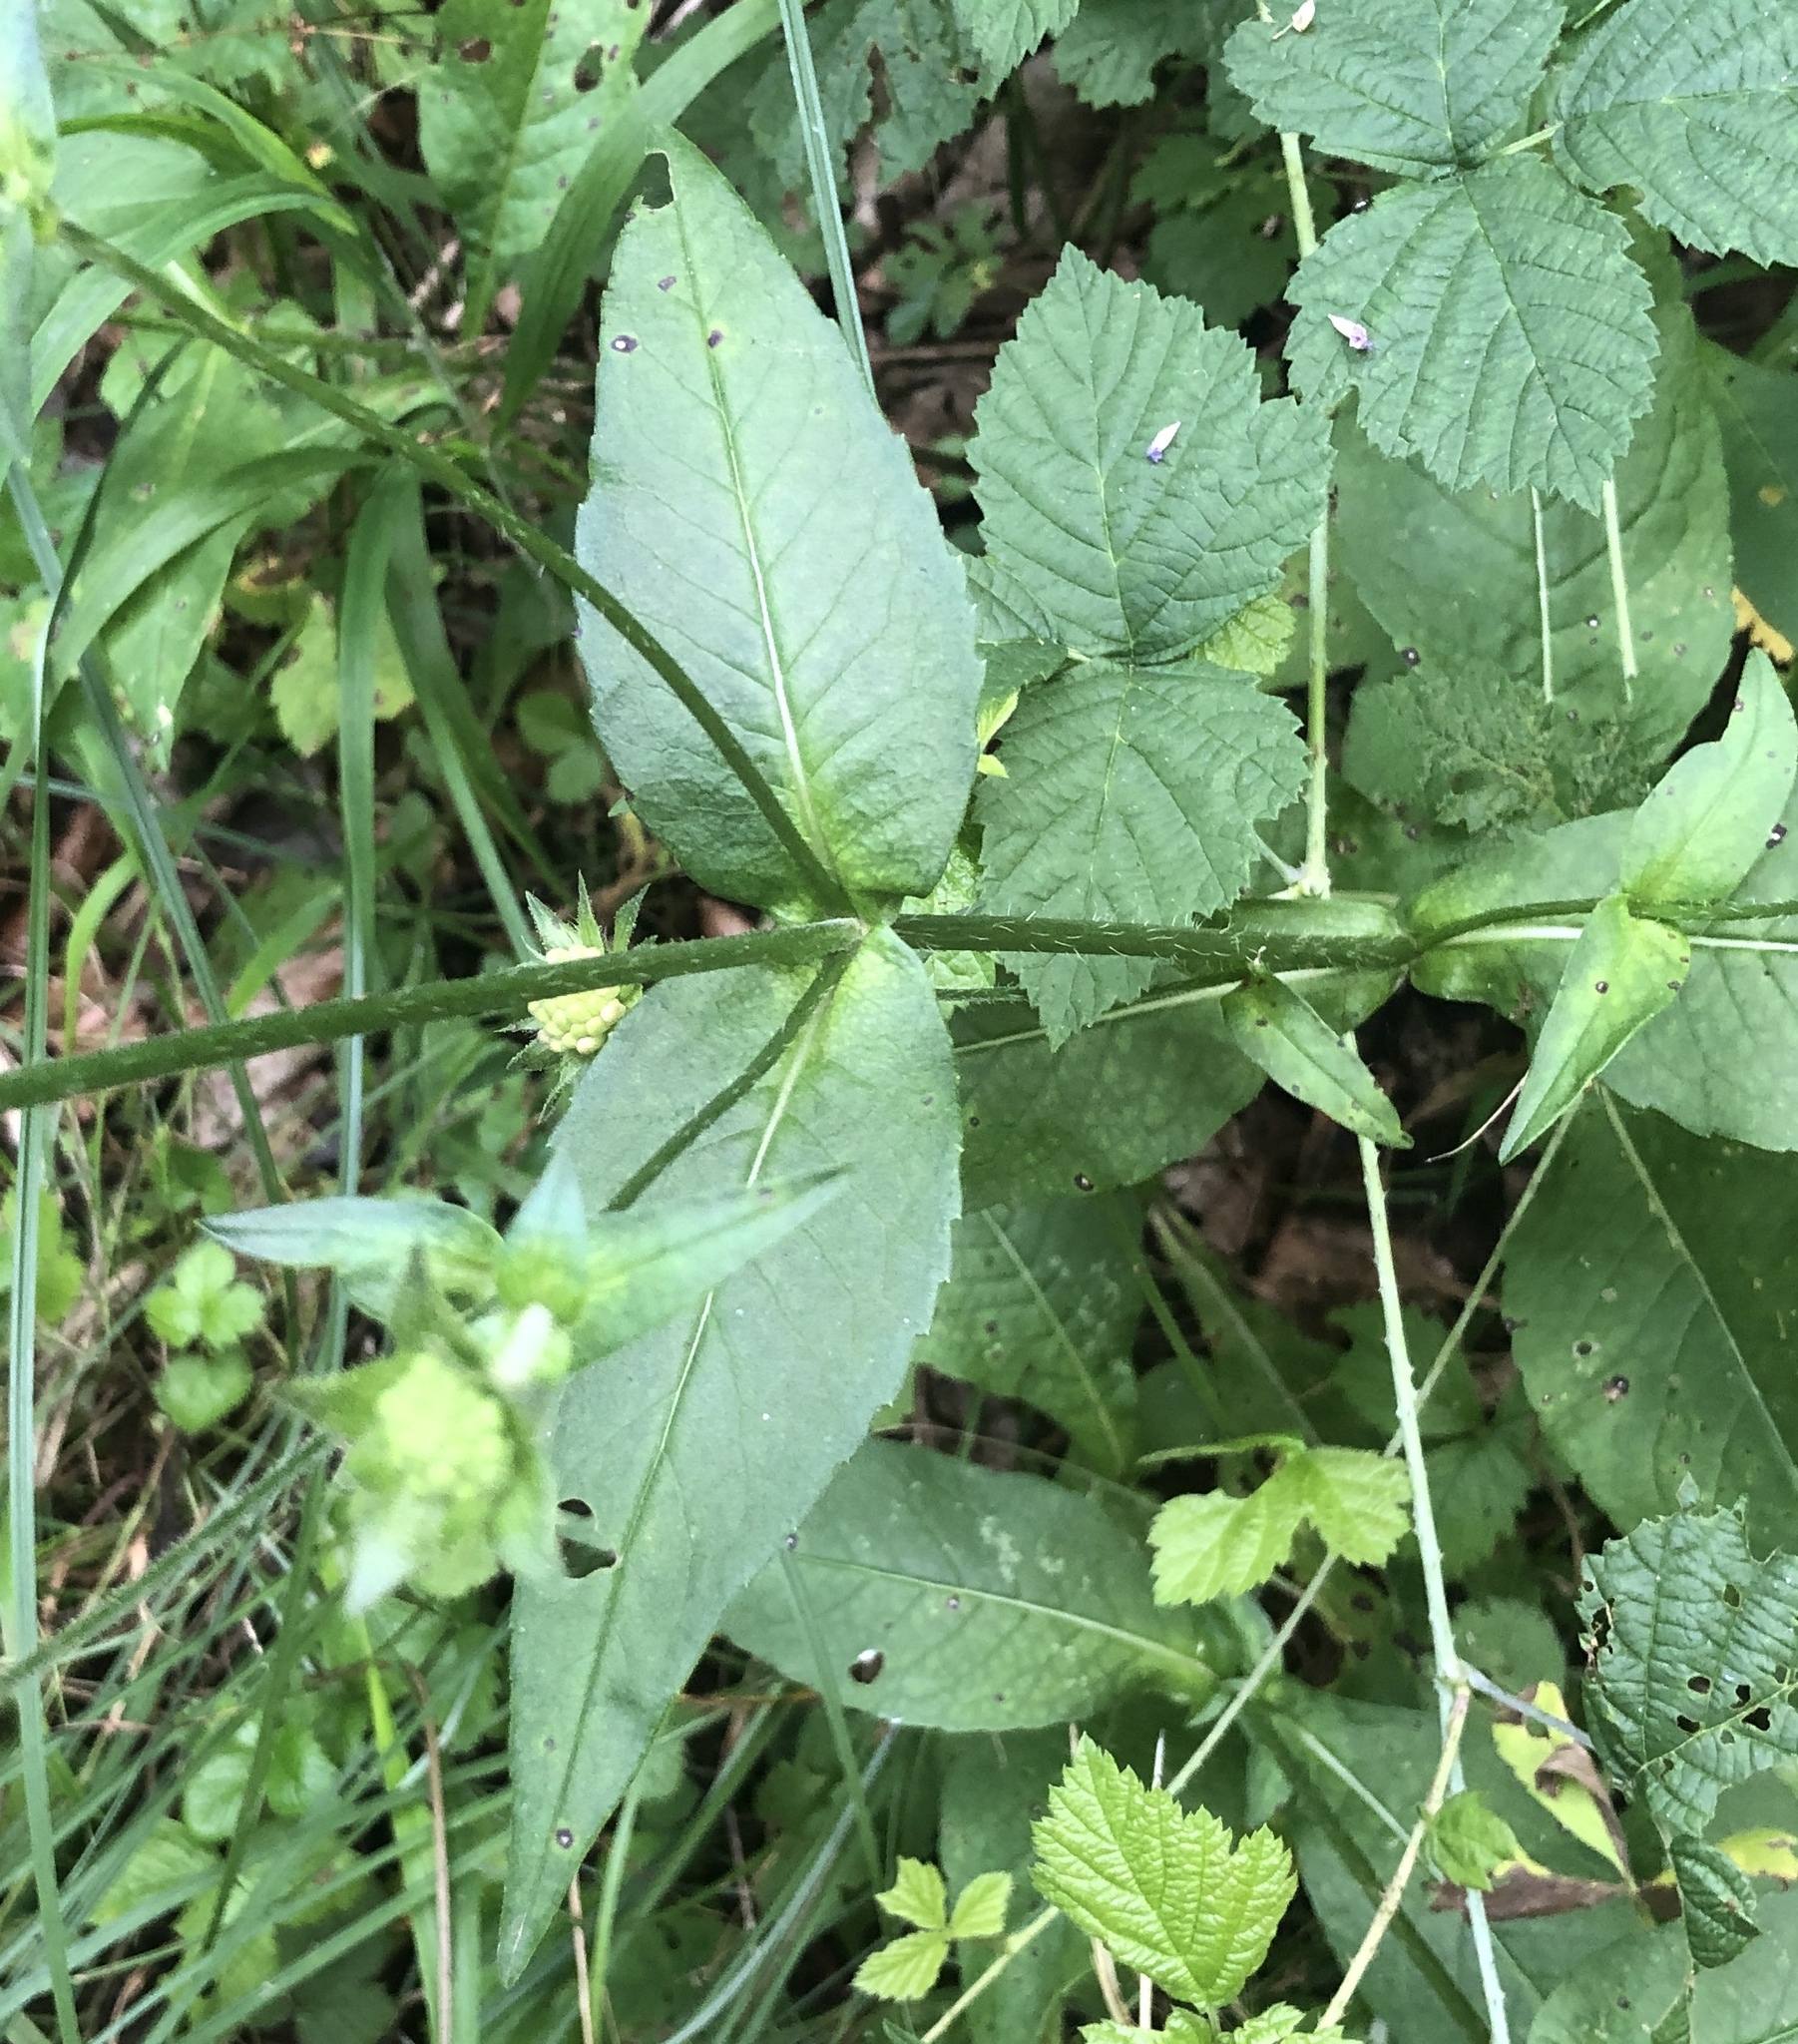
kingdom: Plantae
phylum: Tracheophyta
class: Magnoliopsida
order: Dipsacales
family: Caprifoliaceae
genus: Knautia
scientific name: Knautia dipsacifolia
